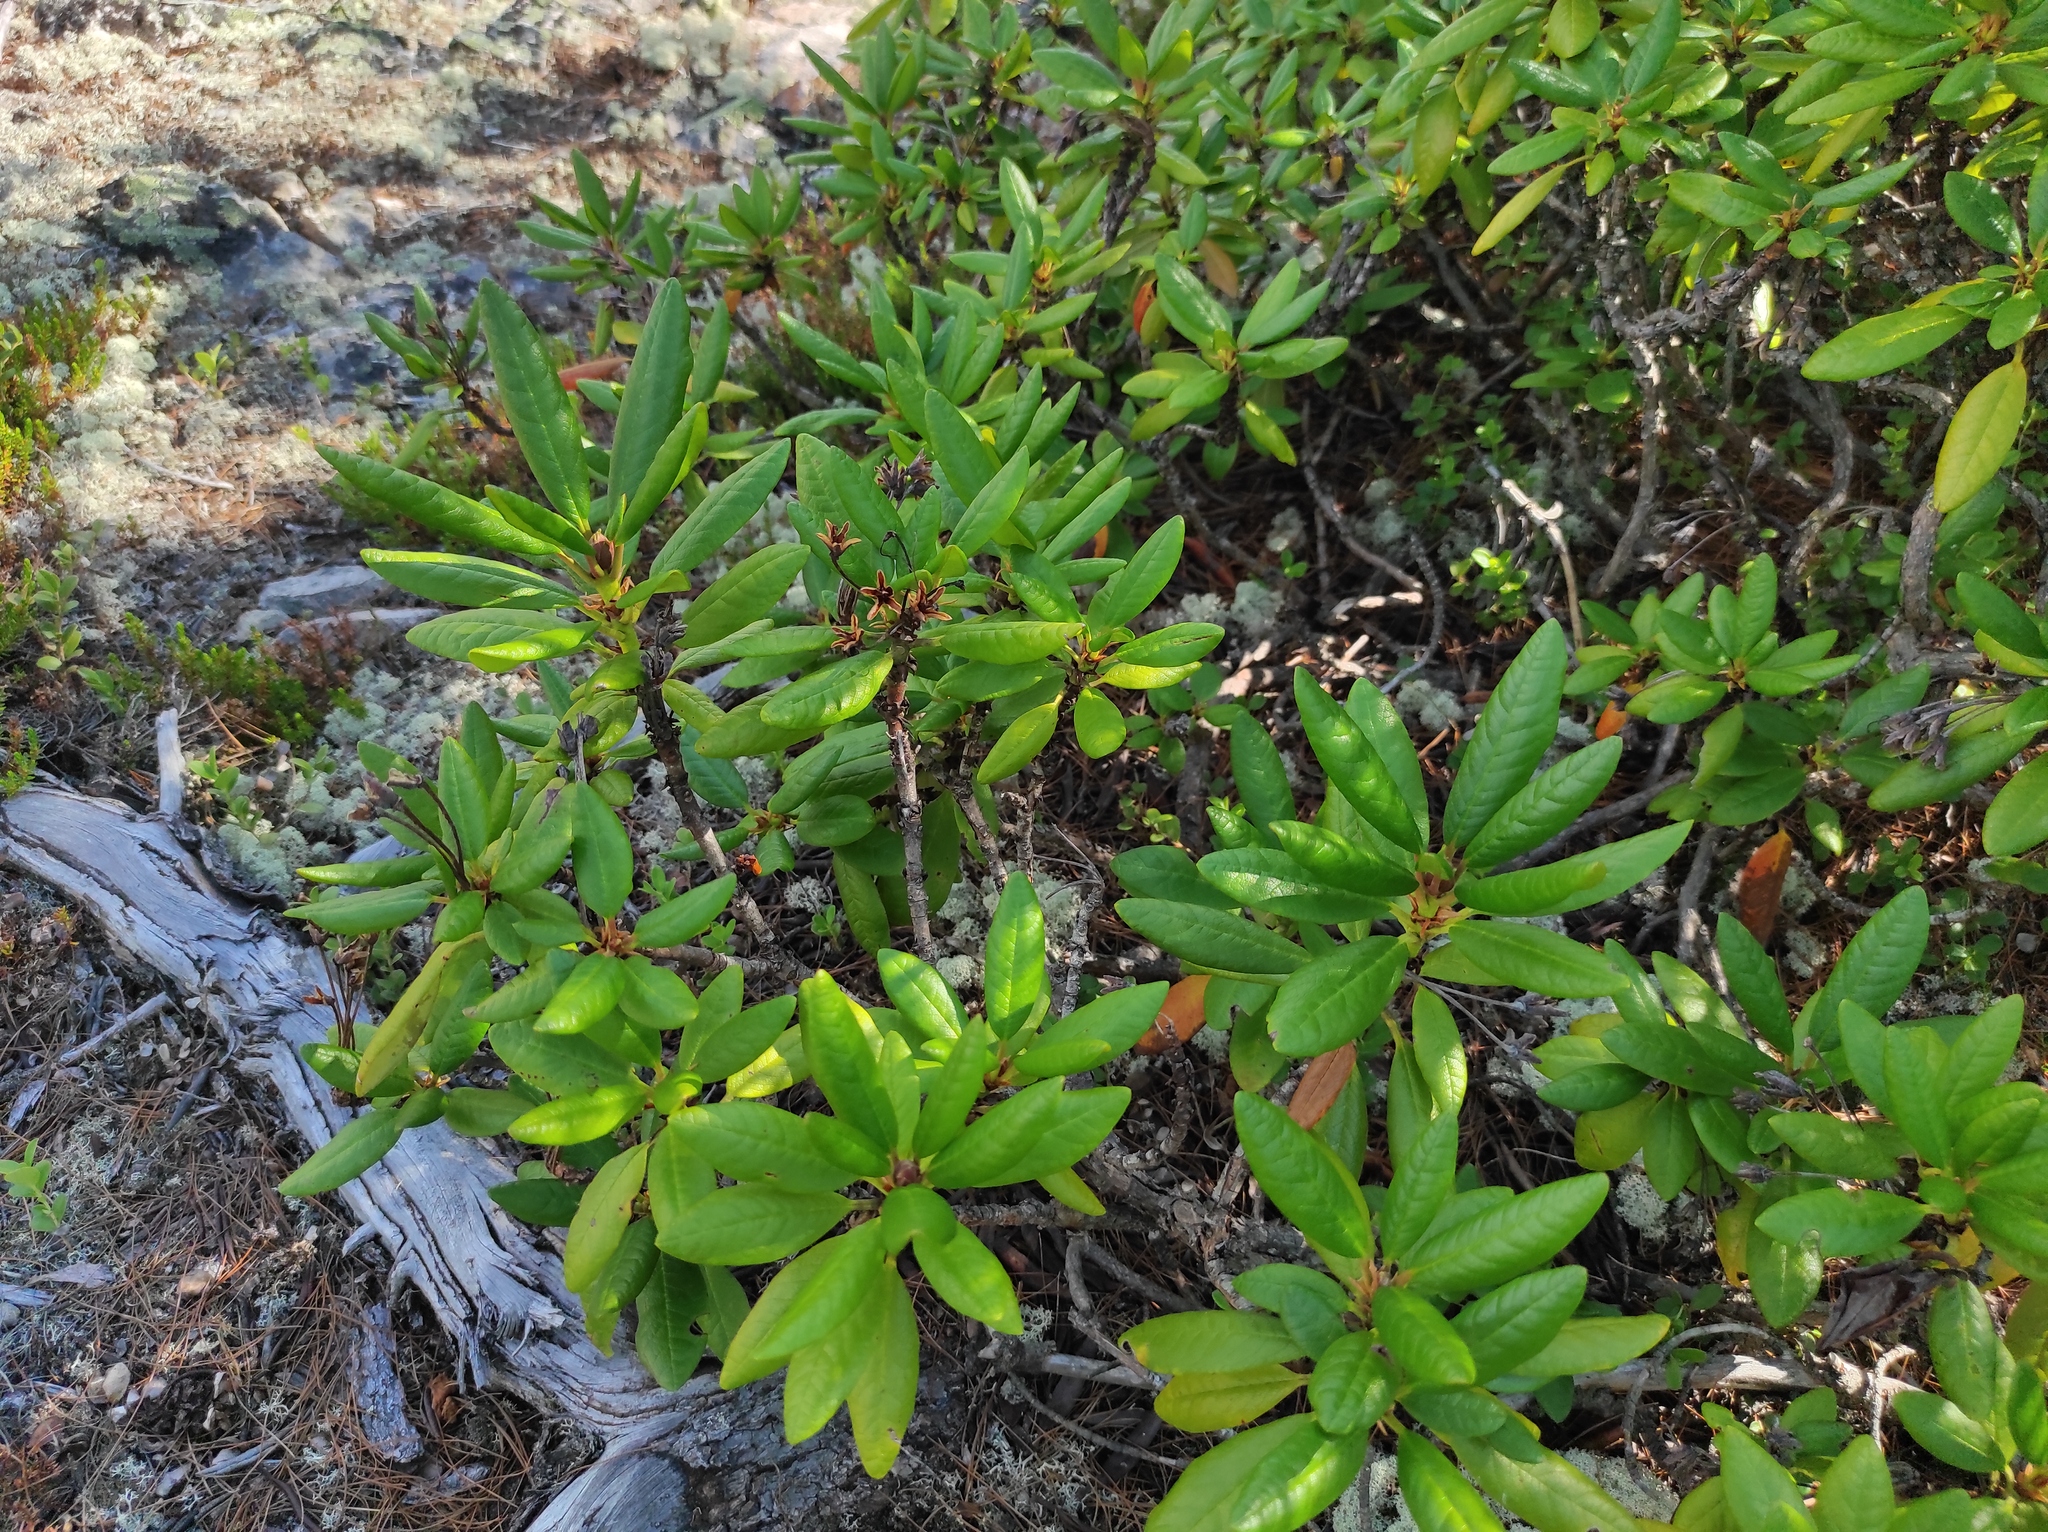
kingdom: Plantae
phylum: Tracheophyta
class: Magnoliopsida
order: Ericales
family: Ericaceae
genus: Rhododendron
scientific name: Rhododendron aureum
